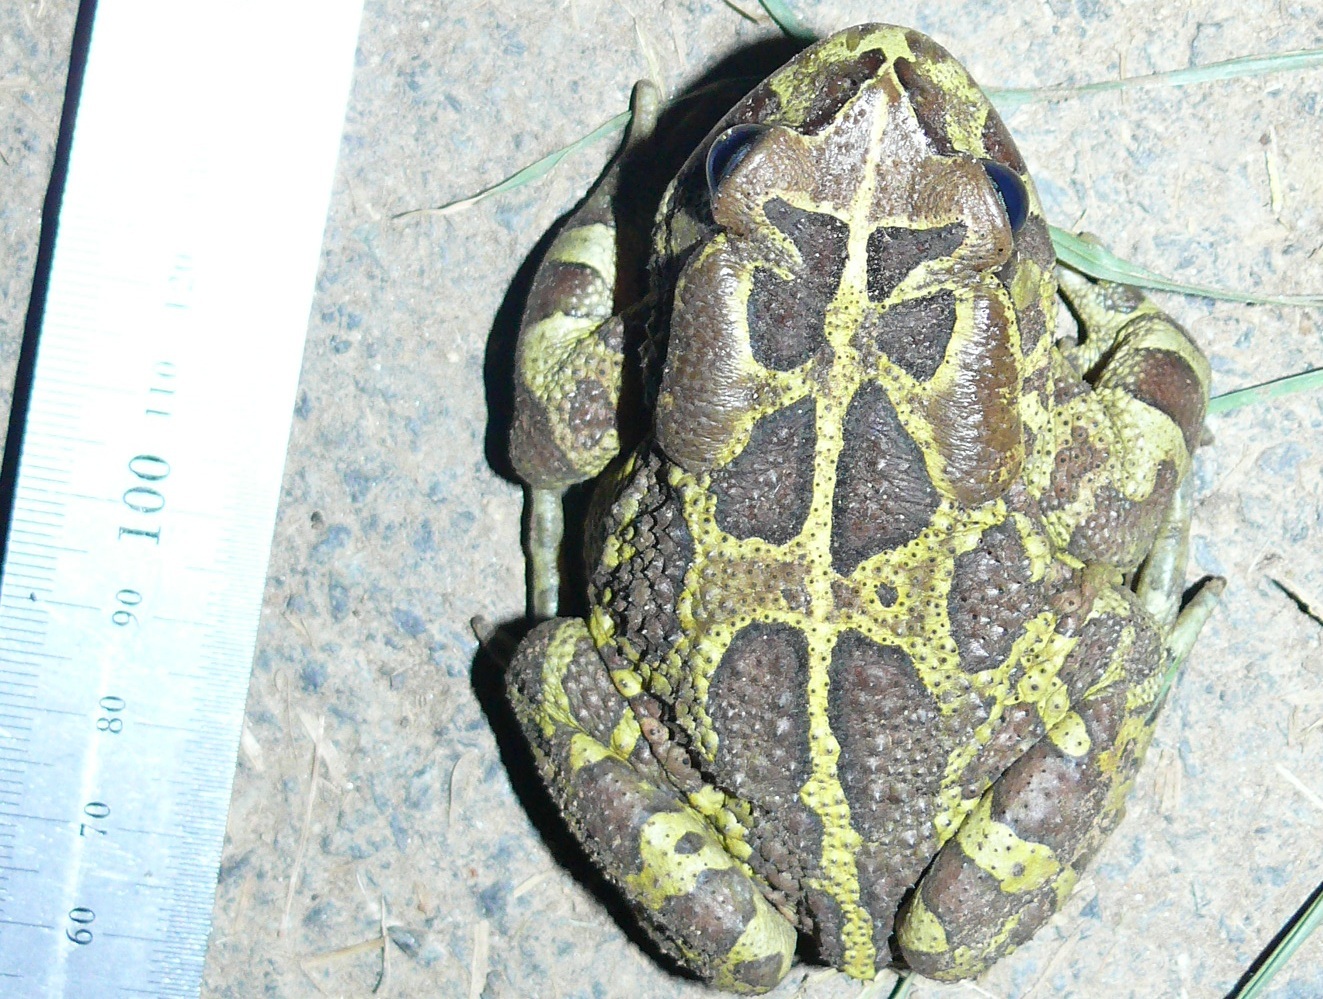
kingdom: Animalia
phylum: Chordata
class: Amphibia
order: Anura
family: Bufonidae
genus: Sclerophrys
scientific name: Sclerophrys pantherina
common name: Panther toad
